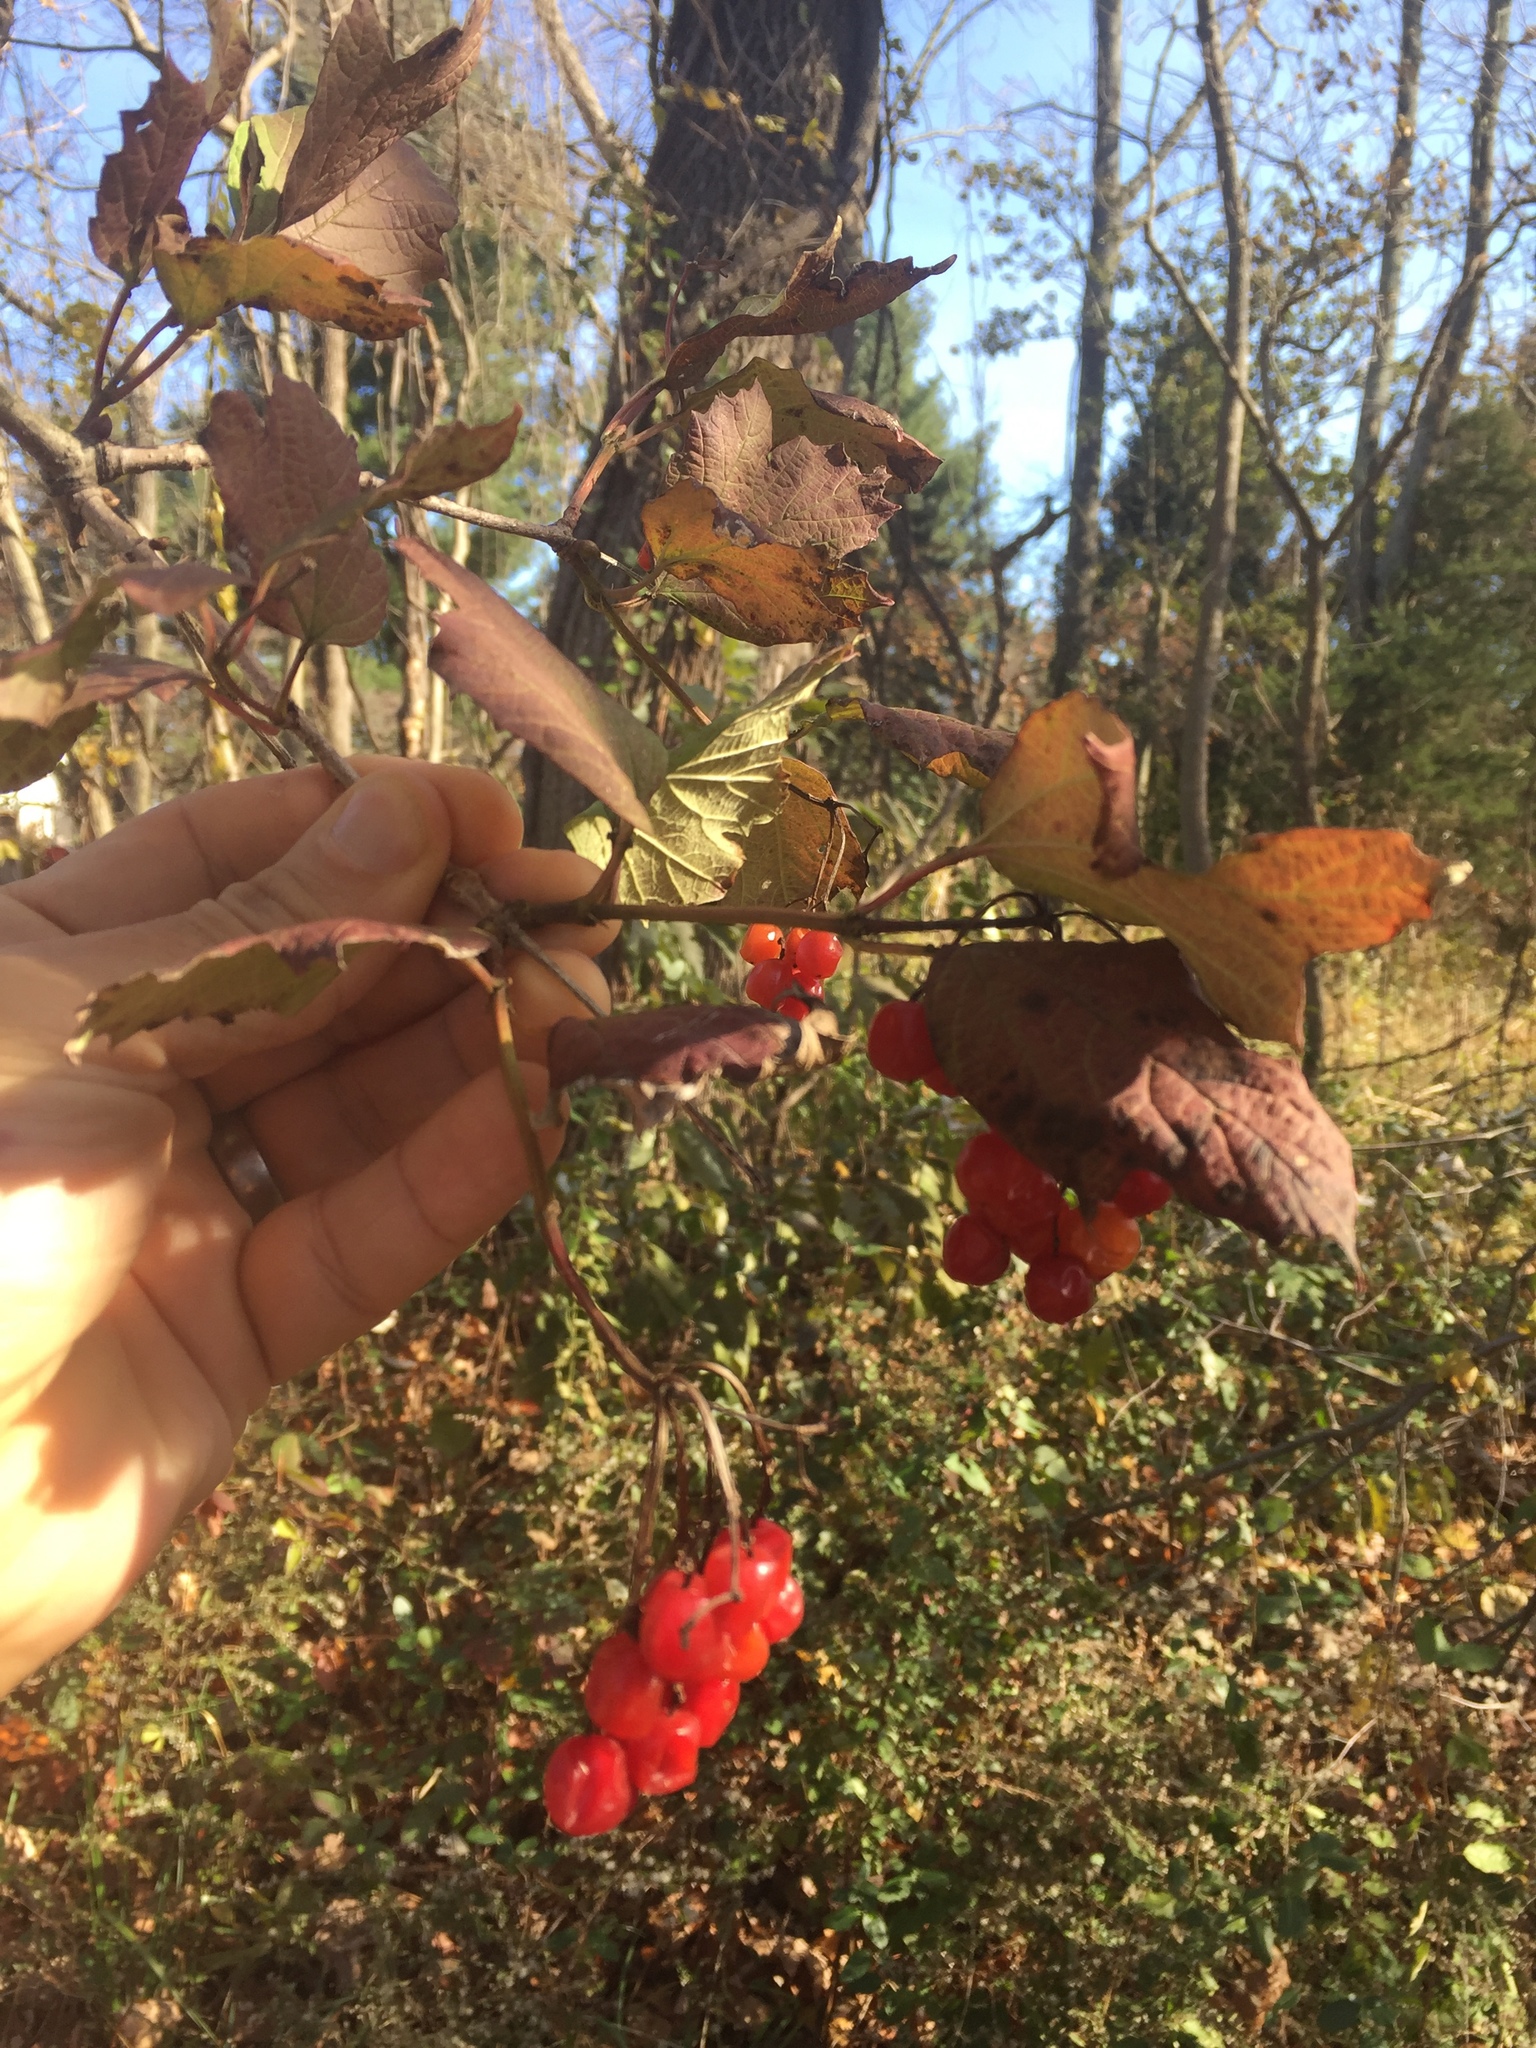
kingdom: Plantae
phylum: Tracheophyta
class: Magnoliopsida
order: Dipsacales
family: Viburnaceae
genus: Viburnum
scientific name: Viburnum opulus
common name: Guelder-rose
